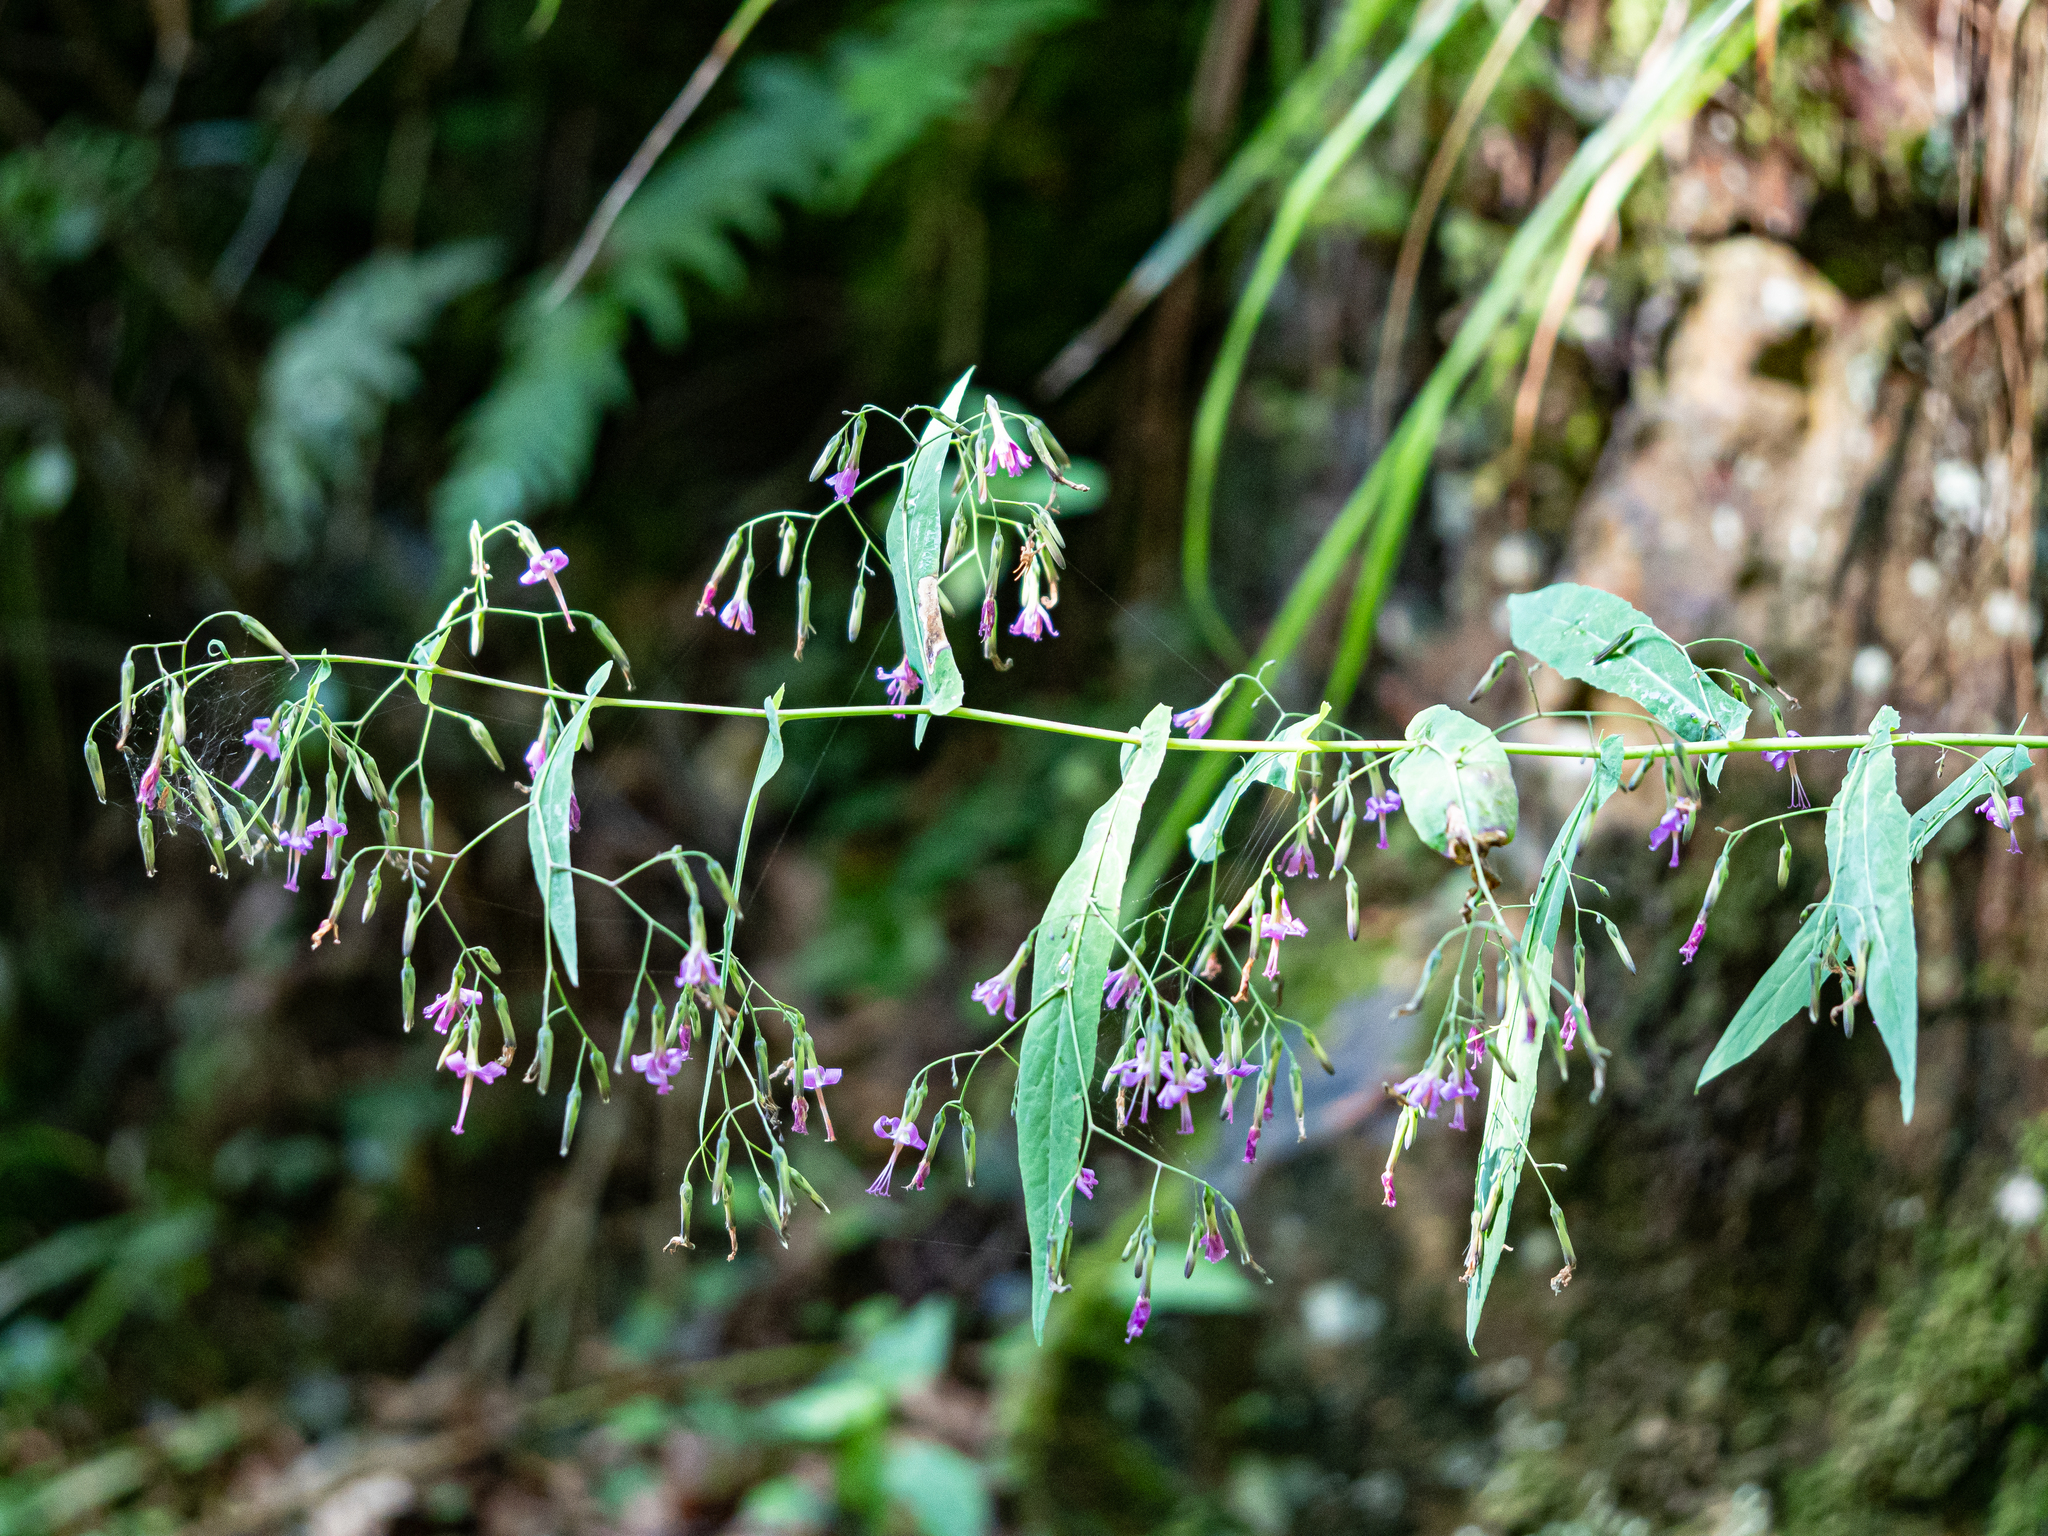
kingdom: Plantae
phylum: Tracheophyta
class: Magnoliopsida
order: Asterales
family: Asteraceae
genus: Prenanthes
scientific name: Prenanthes purpurea
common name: Purple lettuce
